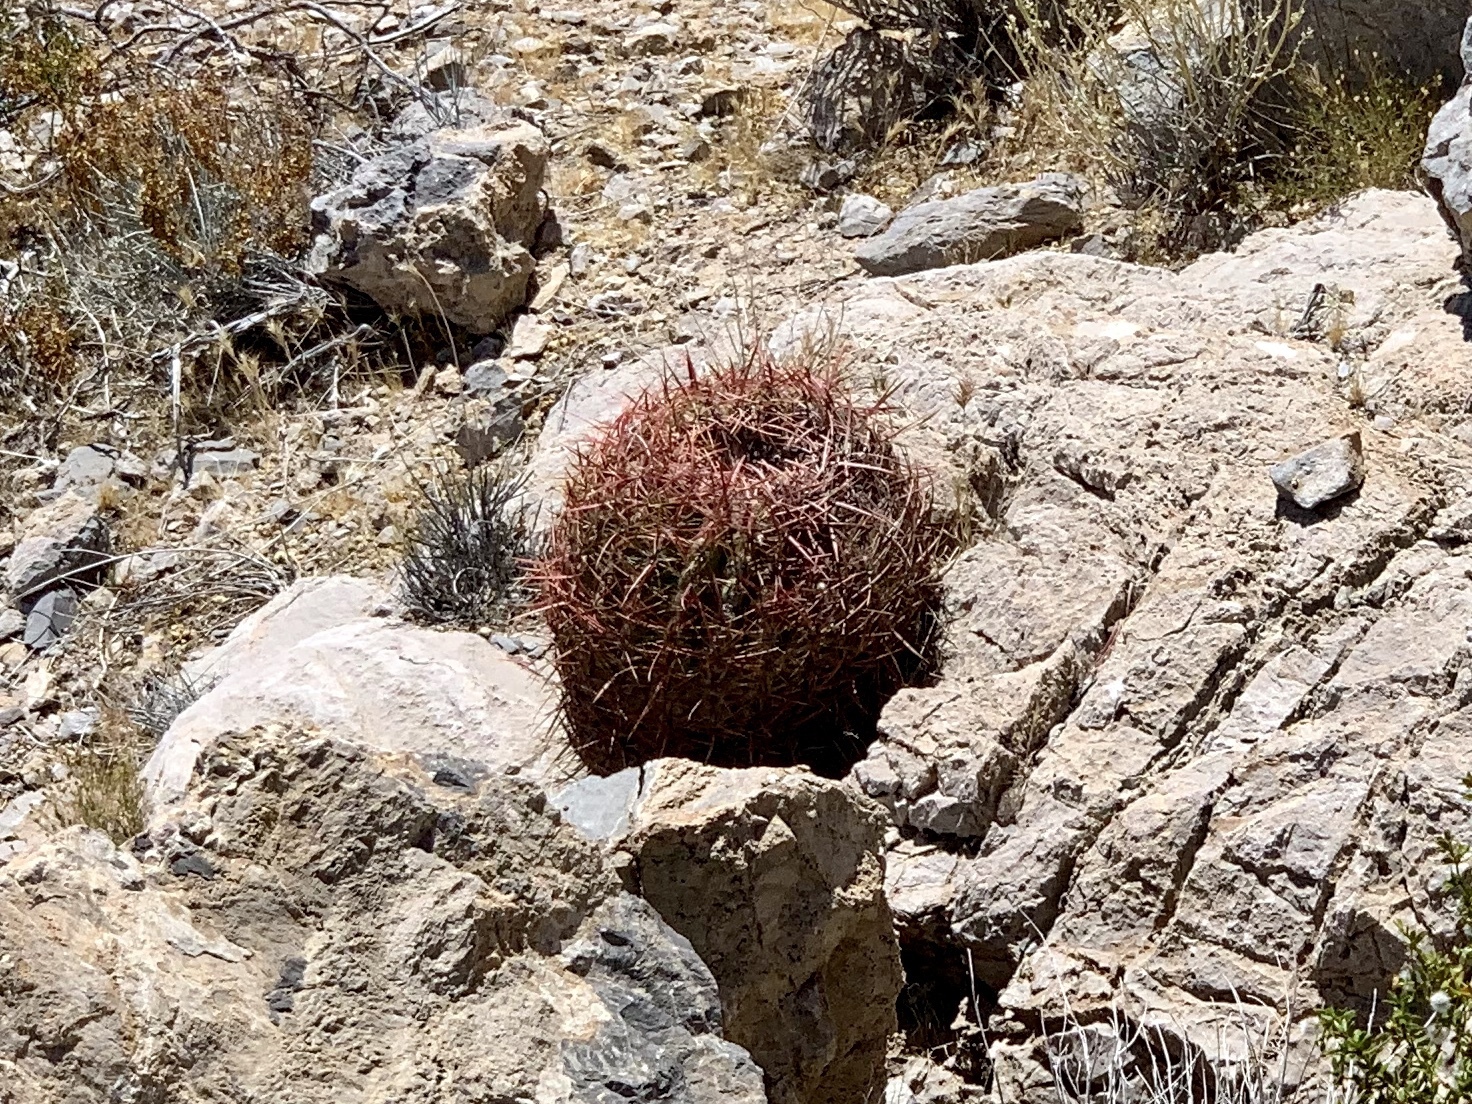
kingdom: Plantae
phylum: Tracheophyta
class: Magnoliopsida
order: Caryophyllales
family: Cactaceae
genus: Ferocactus
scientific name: Ferocactus cylindraceus
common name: California barrel cactus
